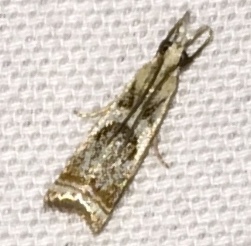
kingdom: Animalia
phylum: Arthropoda
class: Insecta
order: Lepidoptera
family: Crambidae
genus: Microcrambus
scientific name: Microcrambus elegans
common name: Elegant grass-veneer
